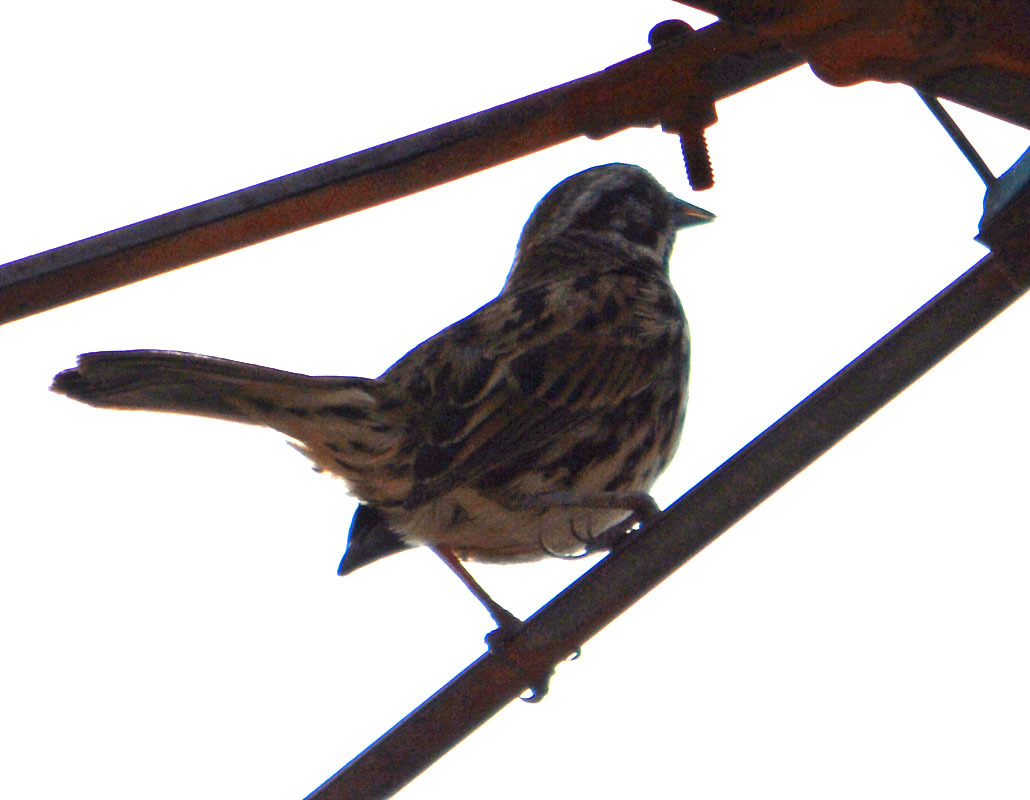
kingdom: Animalia
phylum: Chordata
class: Aves
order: Passeriformes
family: Passerellidae
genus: Melospiza
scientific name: Melospiza melodia
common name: Song sparrow
